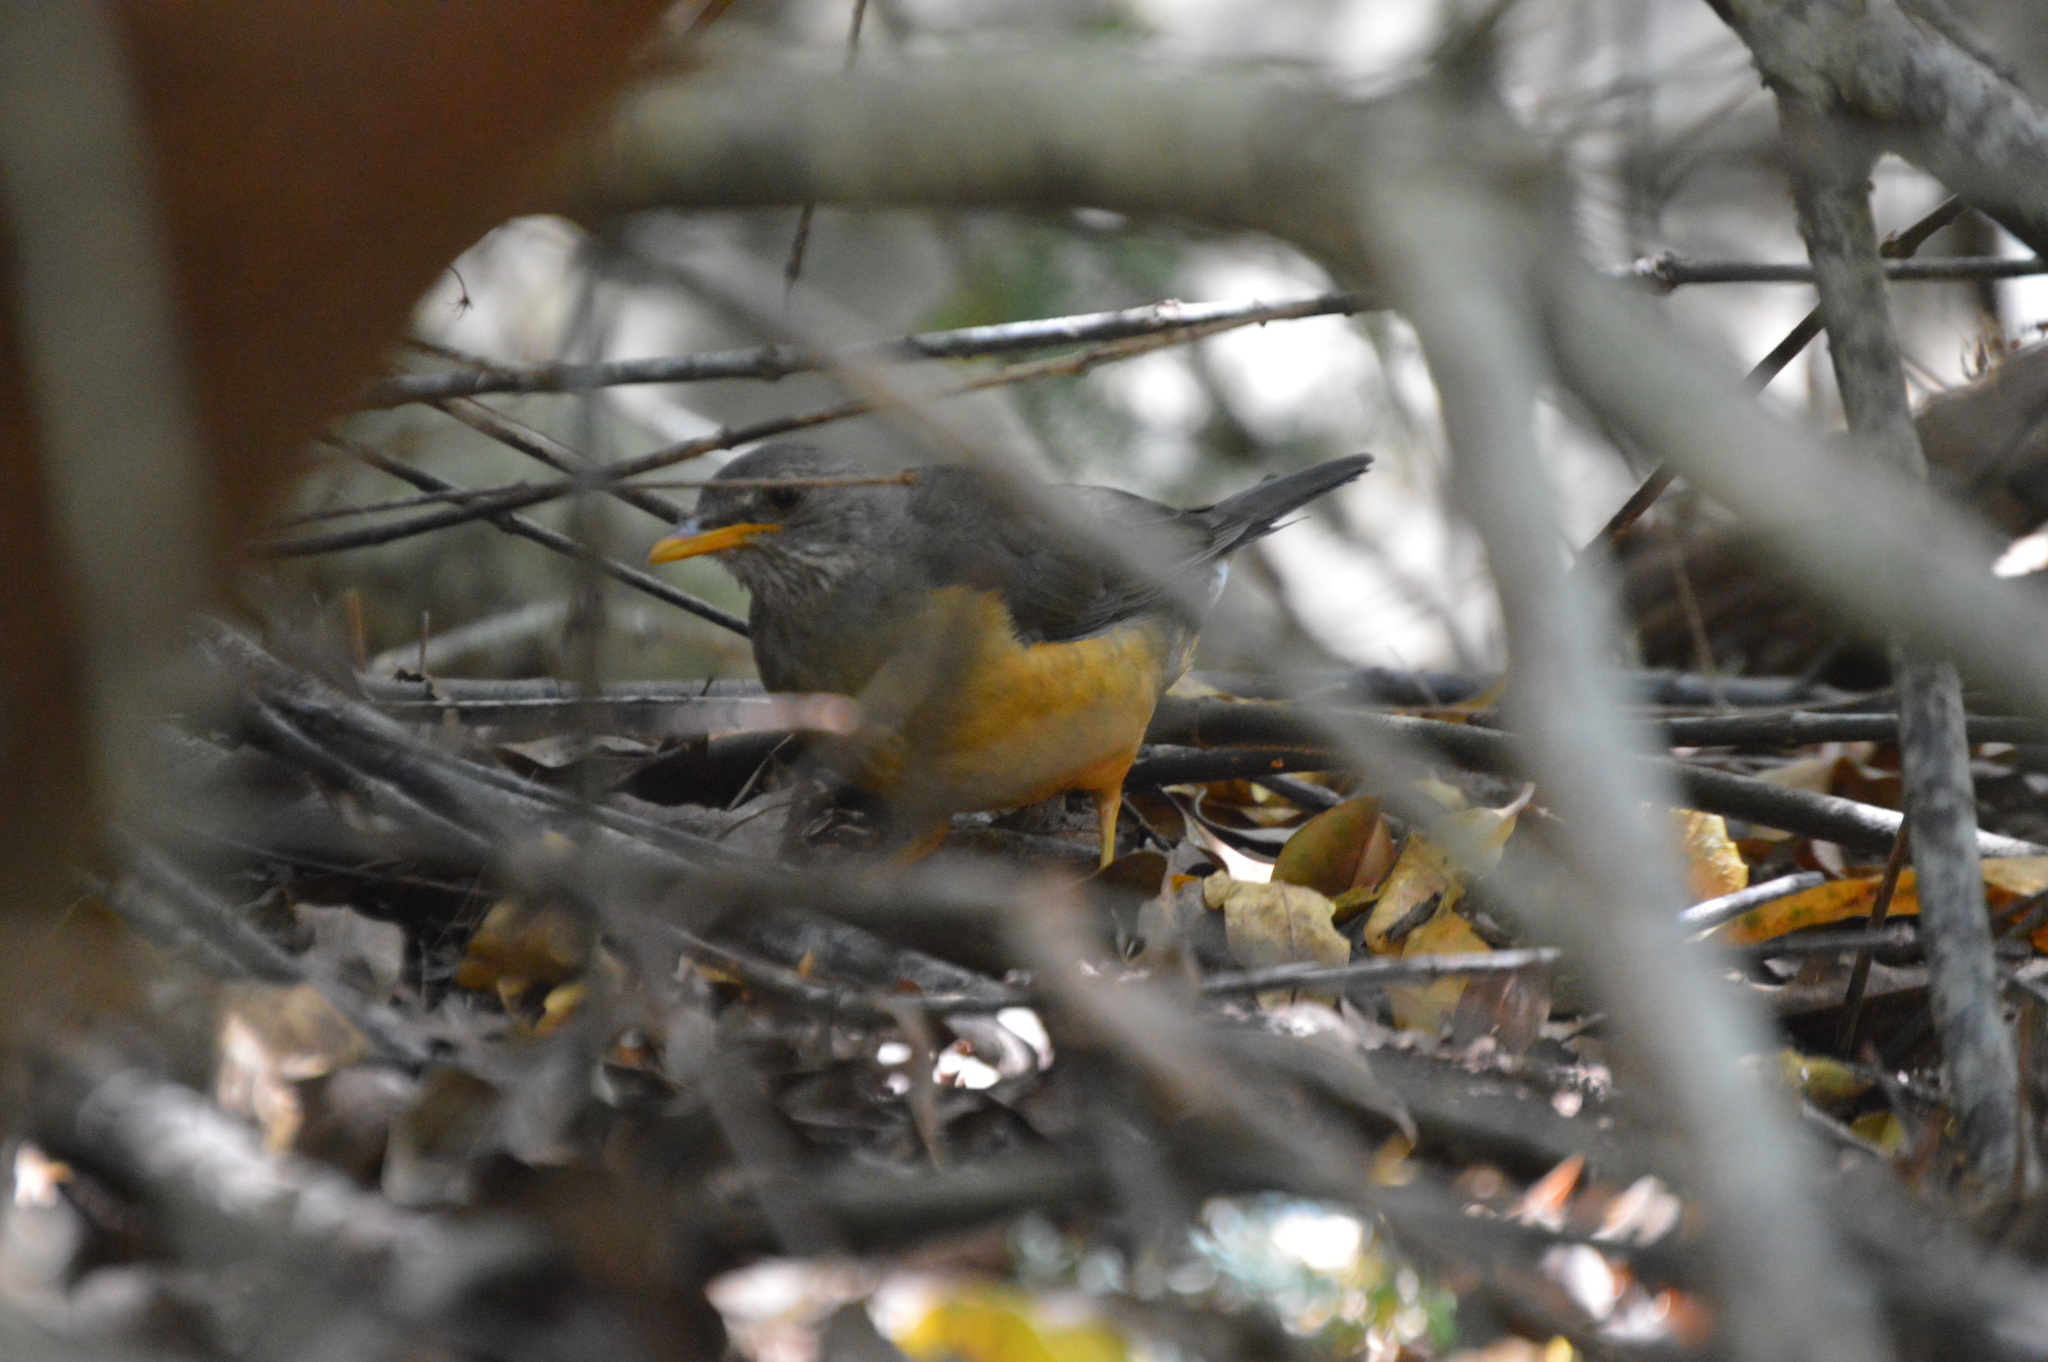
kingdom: Animalia
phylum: Chordata
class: Aves
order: Passeriformes
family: Turdidae
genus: Turdus
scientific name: Turdus olivaceus
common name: Olive thrush
